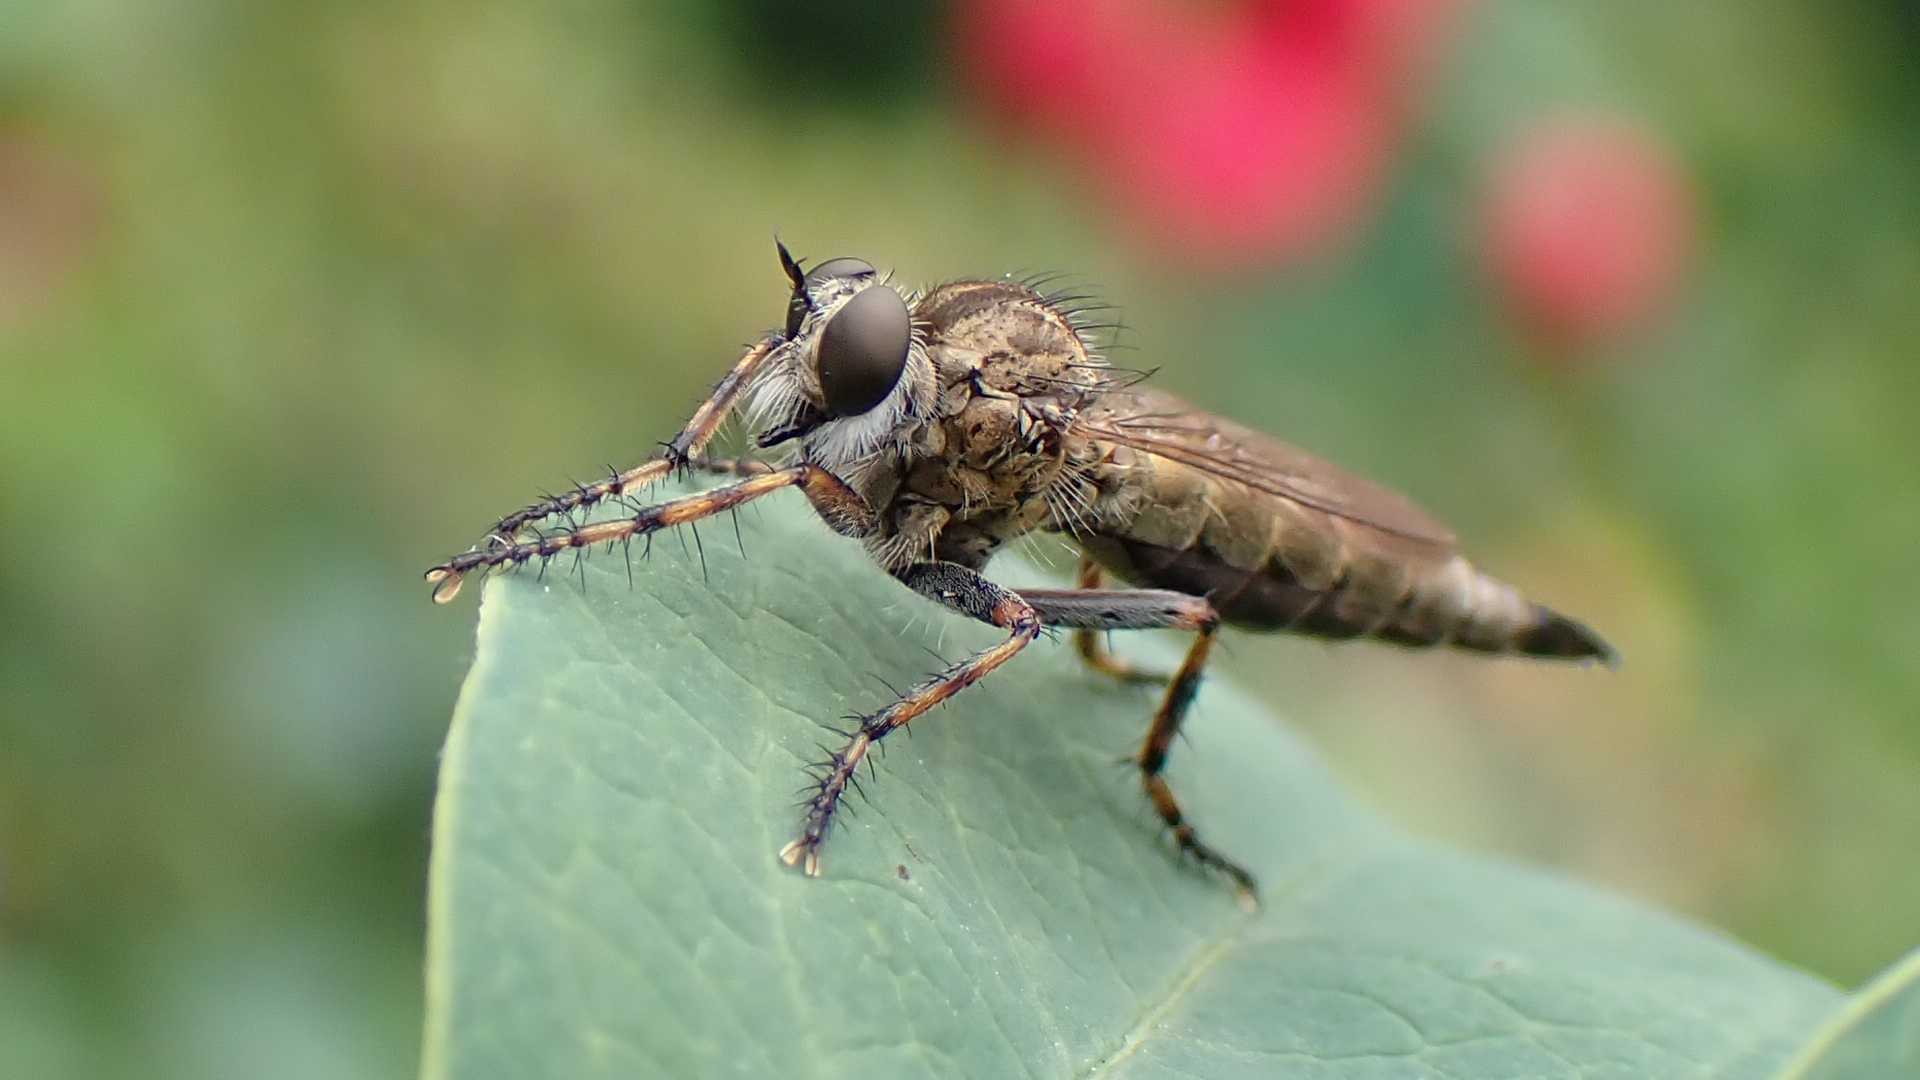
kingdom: Animalia
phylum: Arthropoda
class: Insecta
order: Diptera
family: Asilidae
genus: Epitriptus
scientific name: Epitriptus cingulatus
